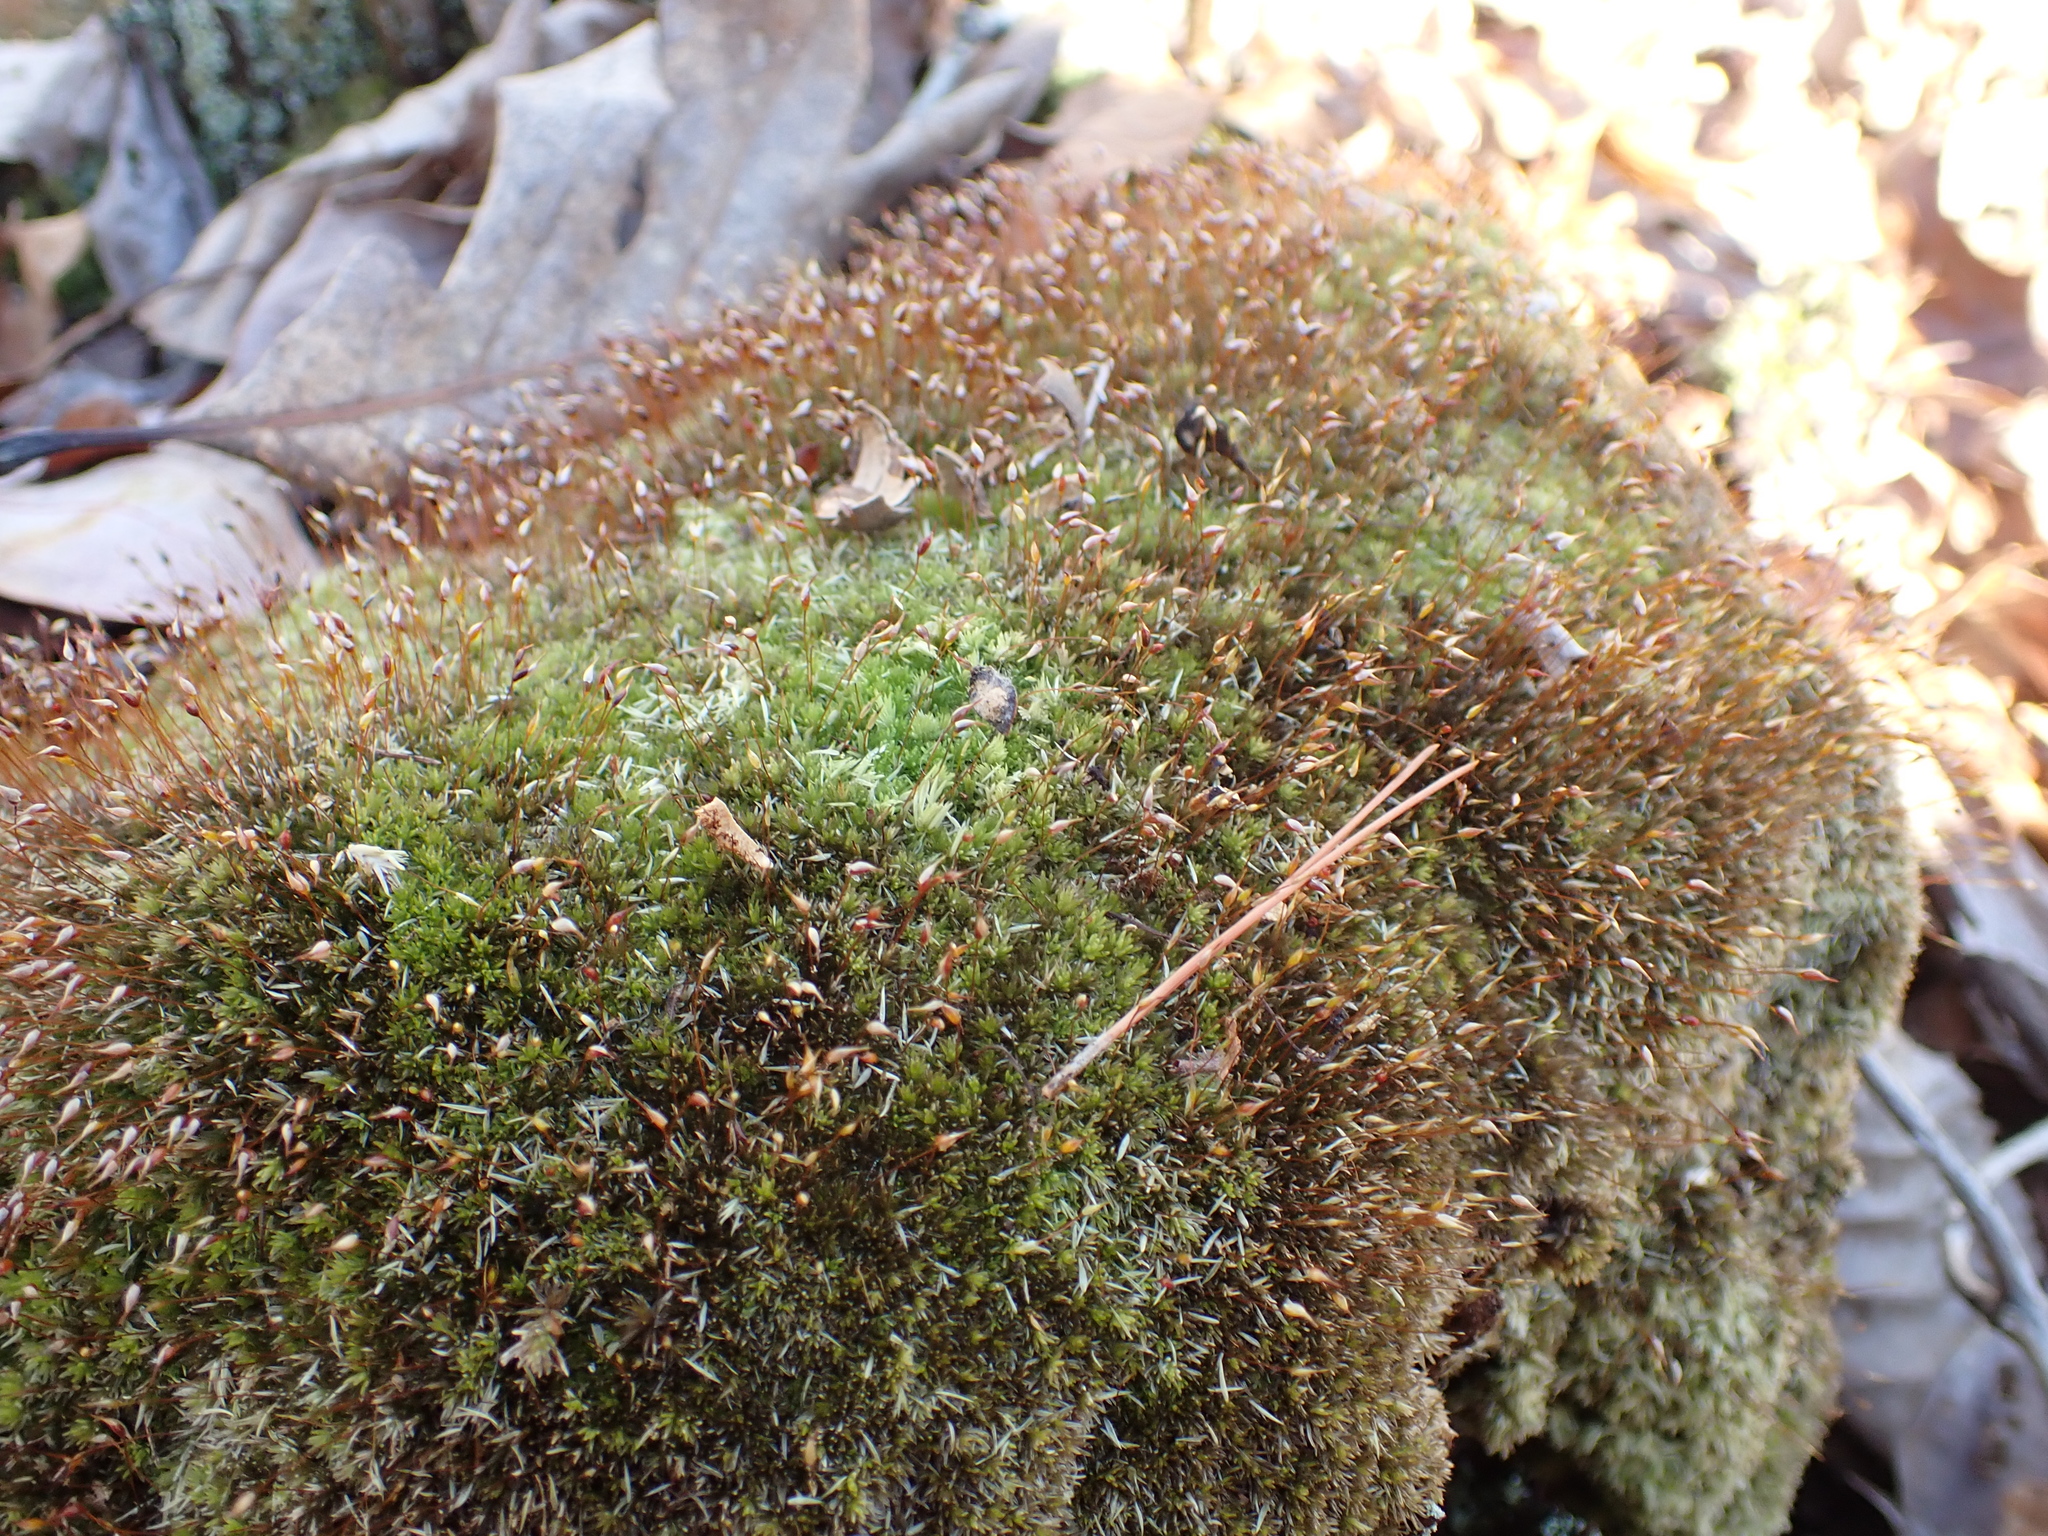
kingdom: Plantae
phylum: Bryophyta
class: Bryopsida
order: Dicranales
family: Leucobryaceae
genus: Leucobryum
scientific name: Leucobryum albidum
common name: White moss
